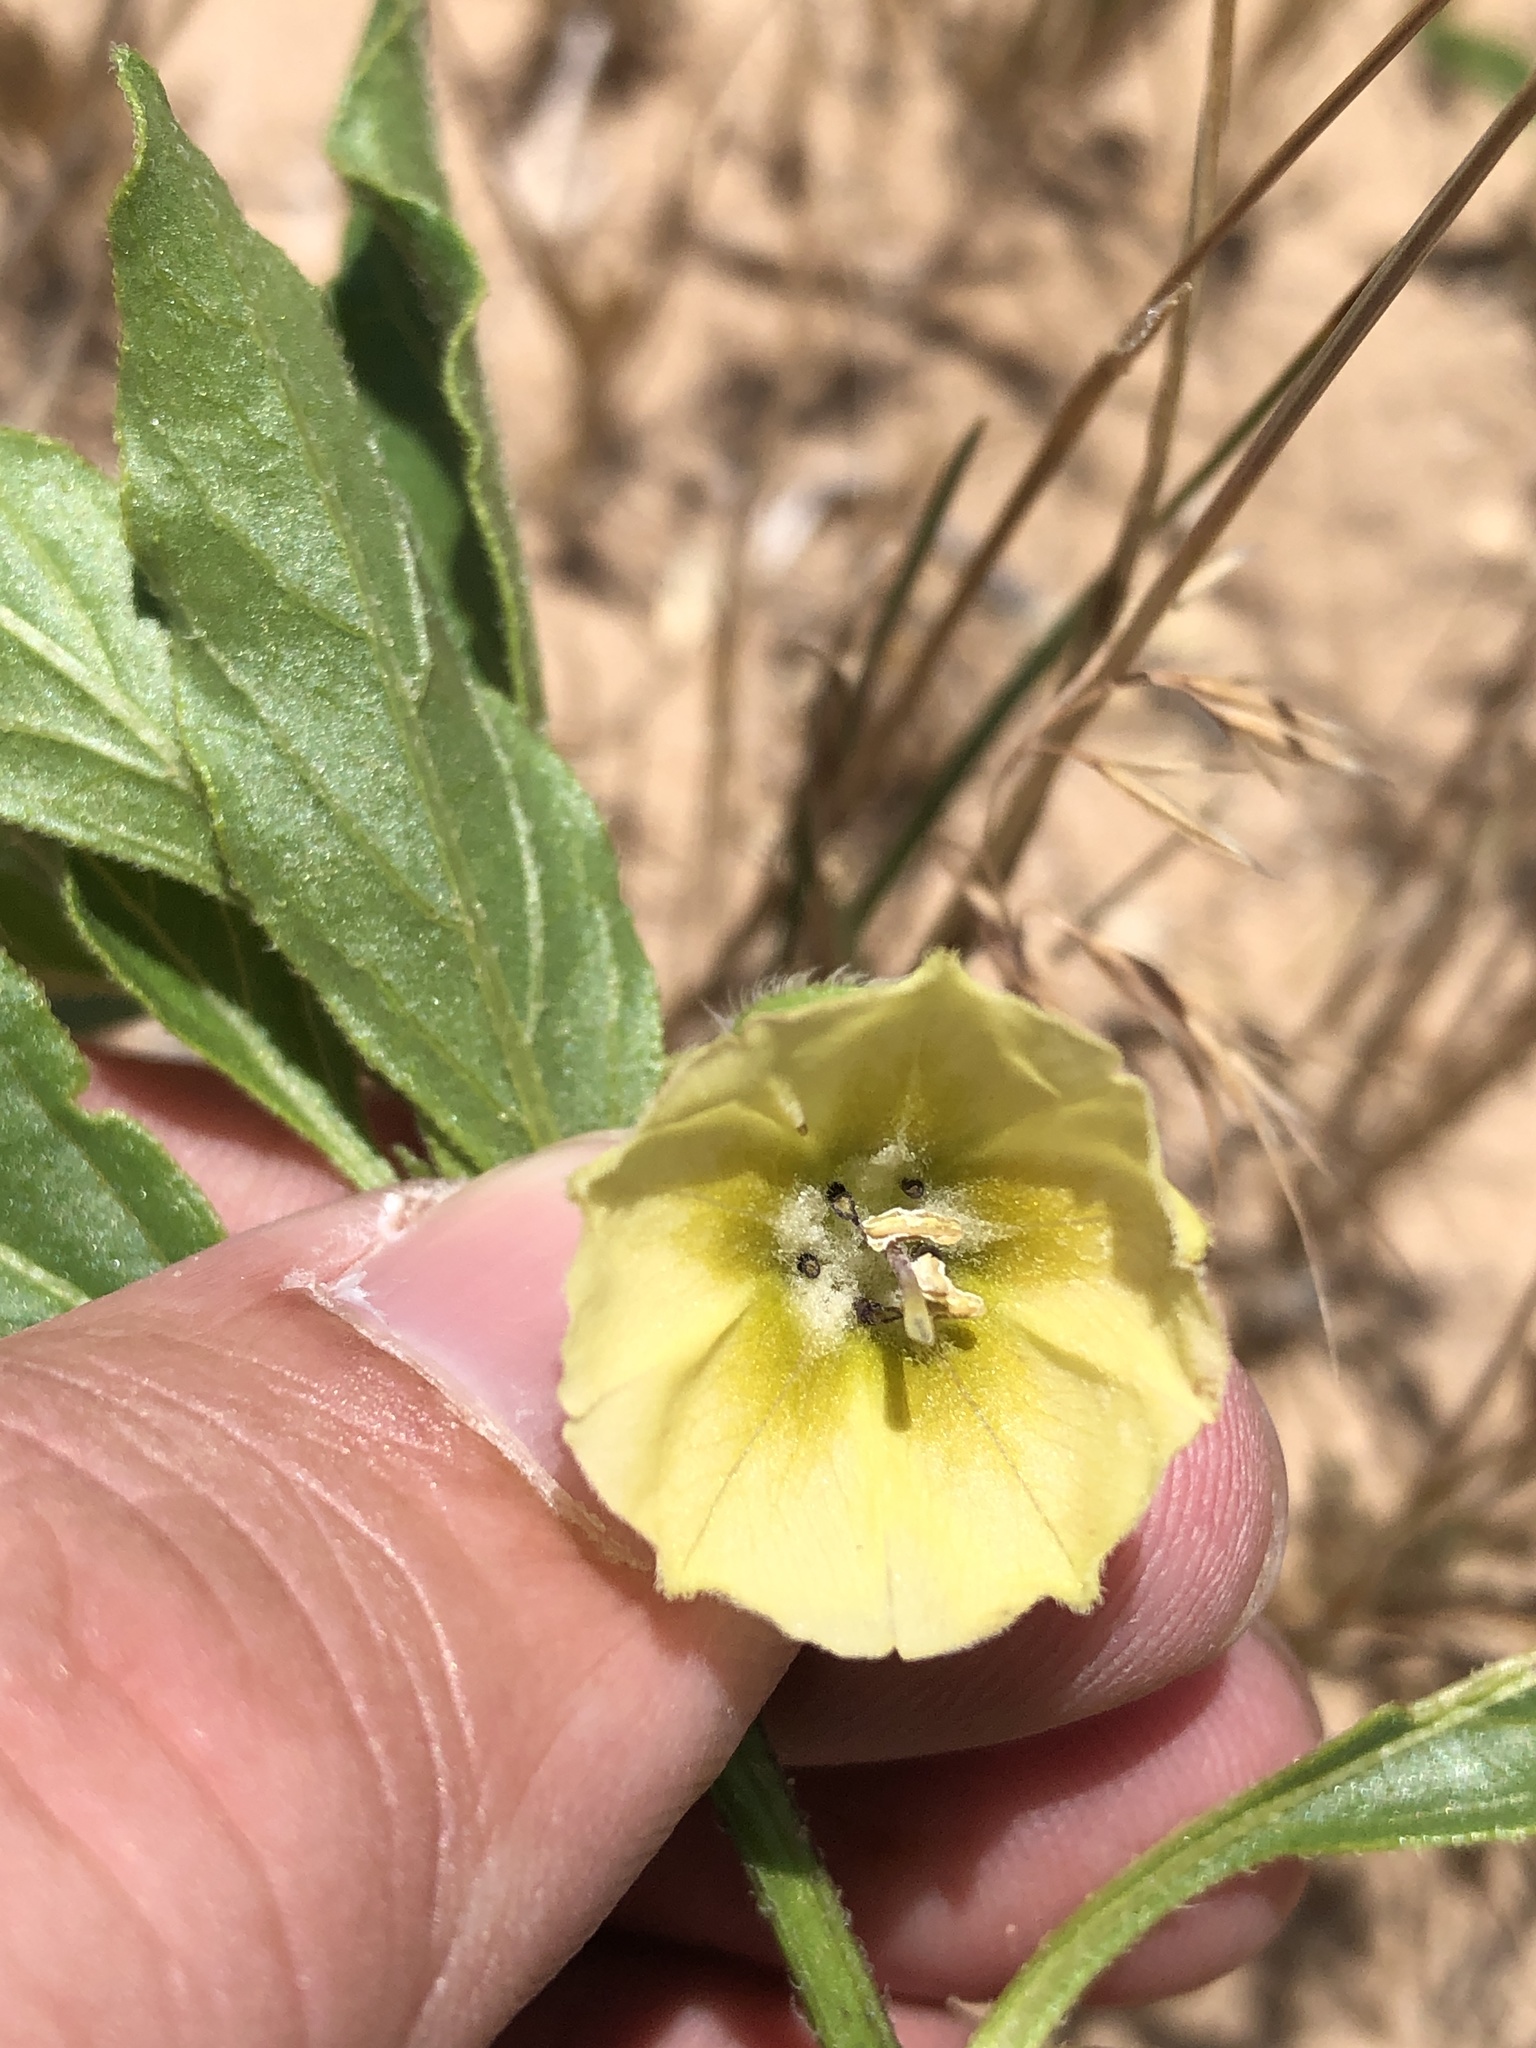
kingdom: Plantae
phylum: Tracheophyta
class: Magnoliopsida
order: Solanales
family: Solanaceae
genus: Physalis
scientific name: Physalis pumila
